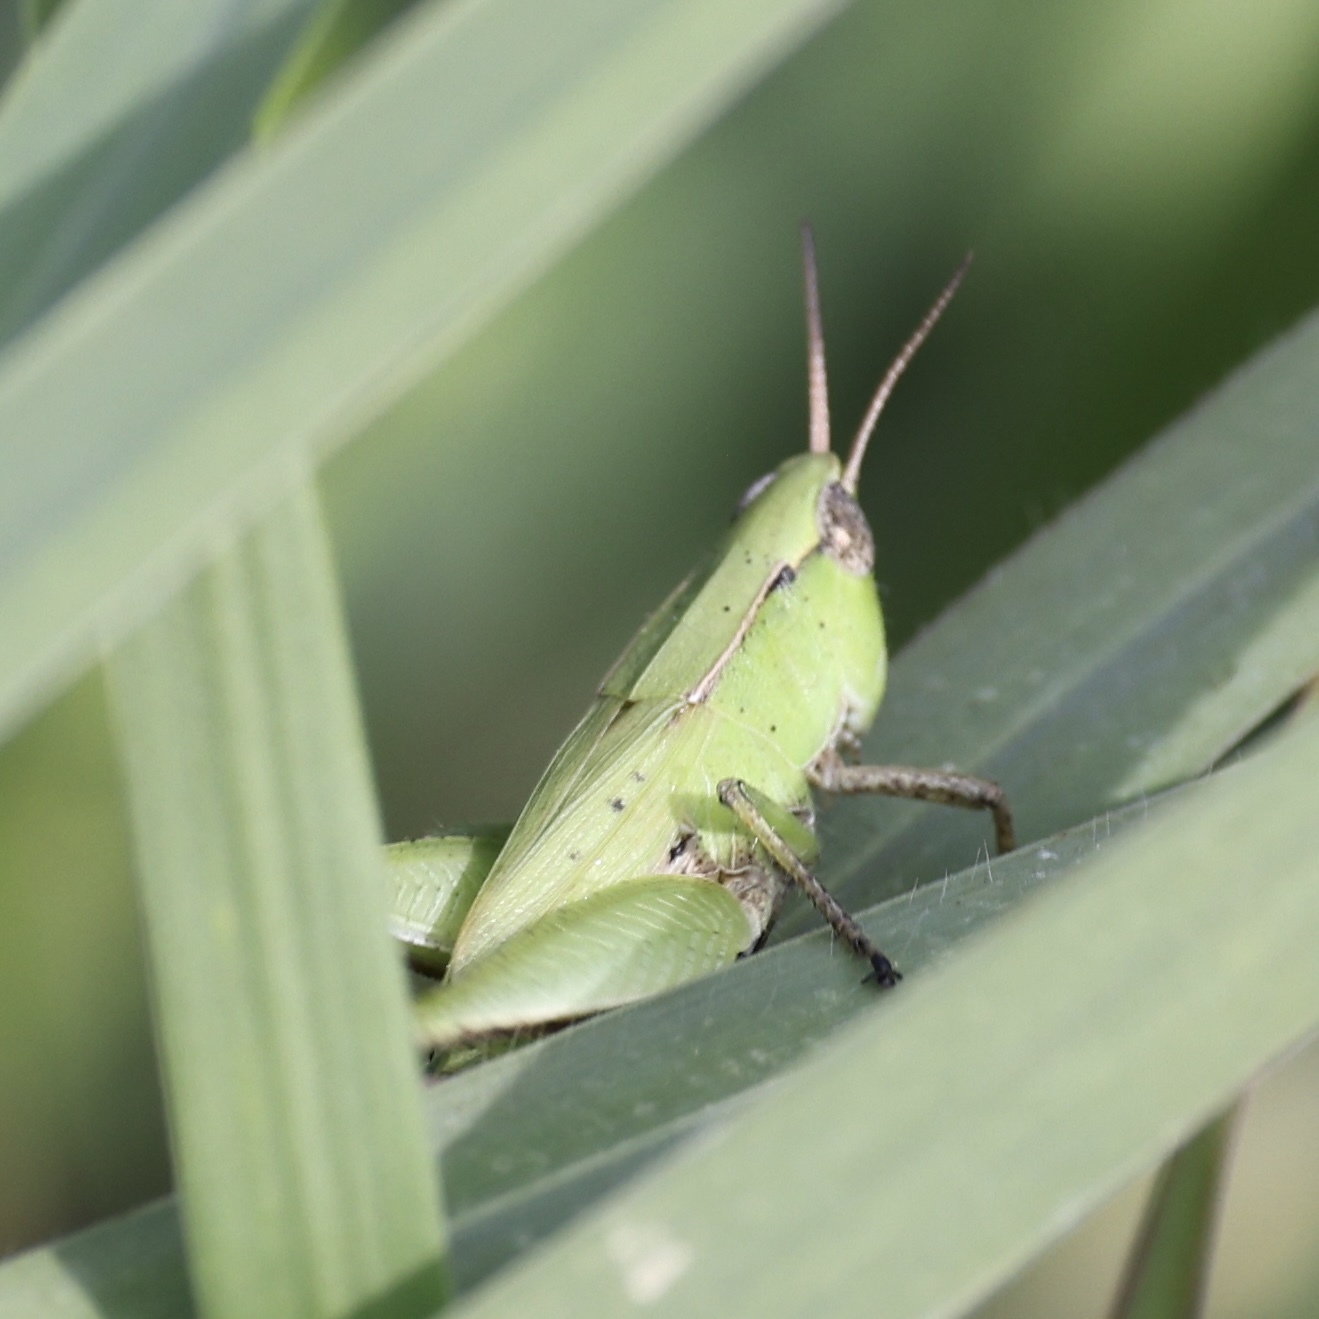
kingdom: Animalia
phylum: Arthropoda
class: Insecta
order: Orthoptera
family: Acrididae
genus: Dichromorpha
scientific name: Dichromorpha viridis
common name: Short-winged green grasshopper
